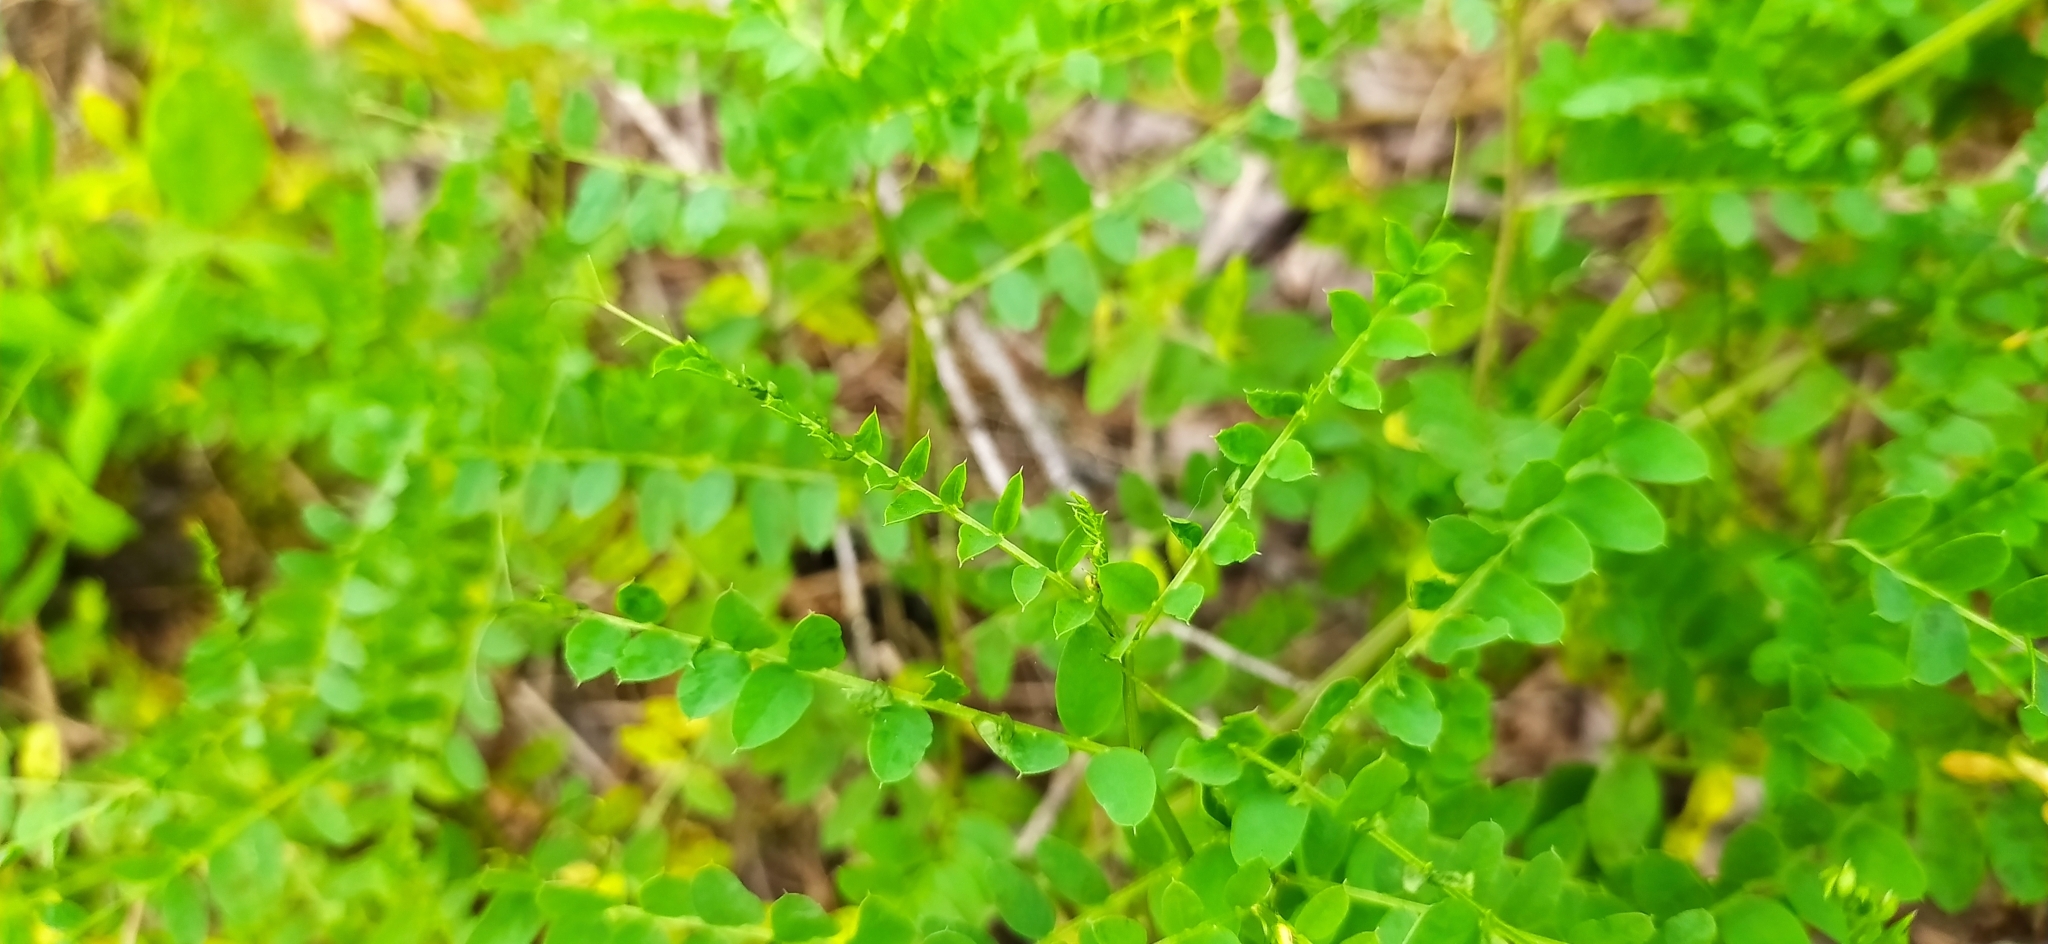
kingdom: Plantae
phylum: Tracheophyta
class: Magnoliopsida
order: Fabales
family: Fabaceae
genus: Vicia
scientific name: Vicia sylvatica
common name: Wood vetch
